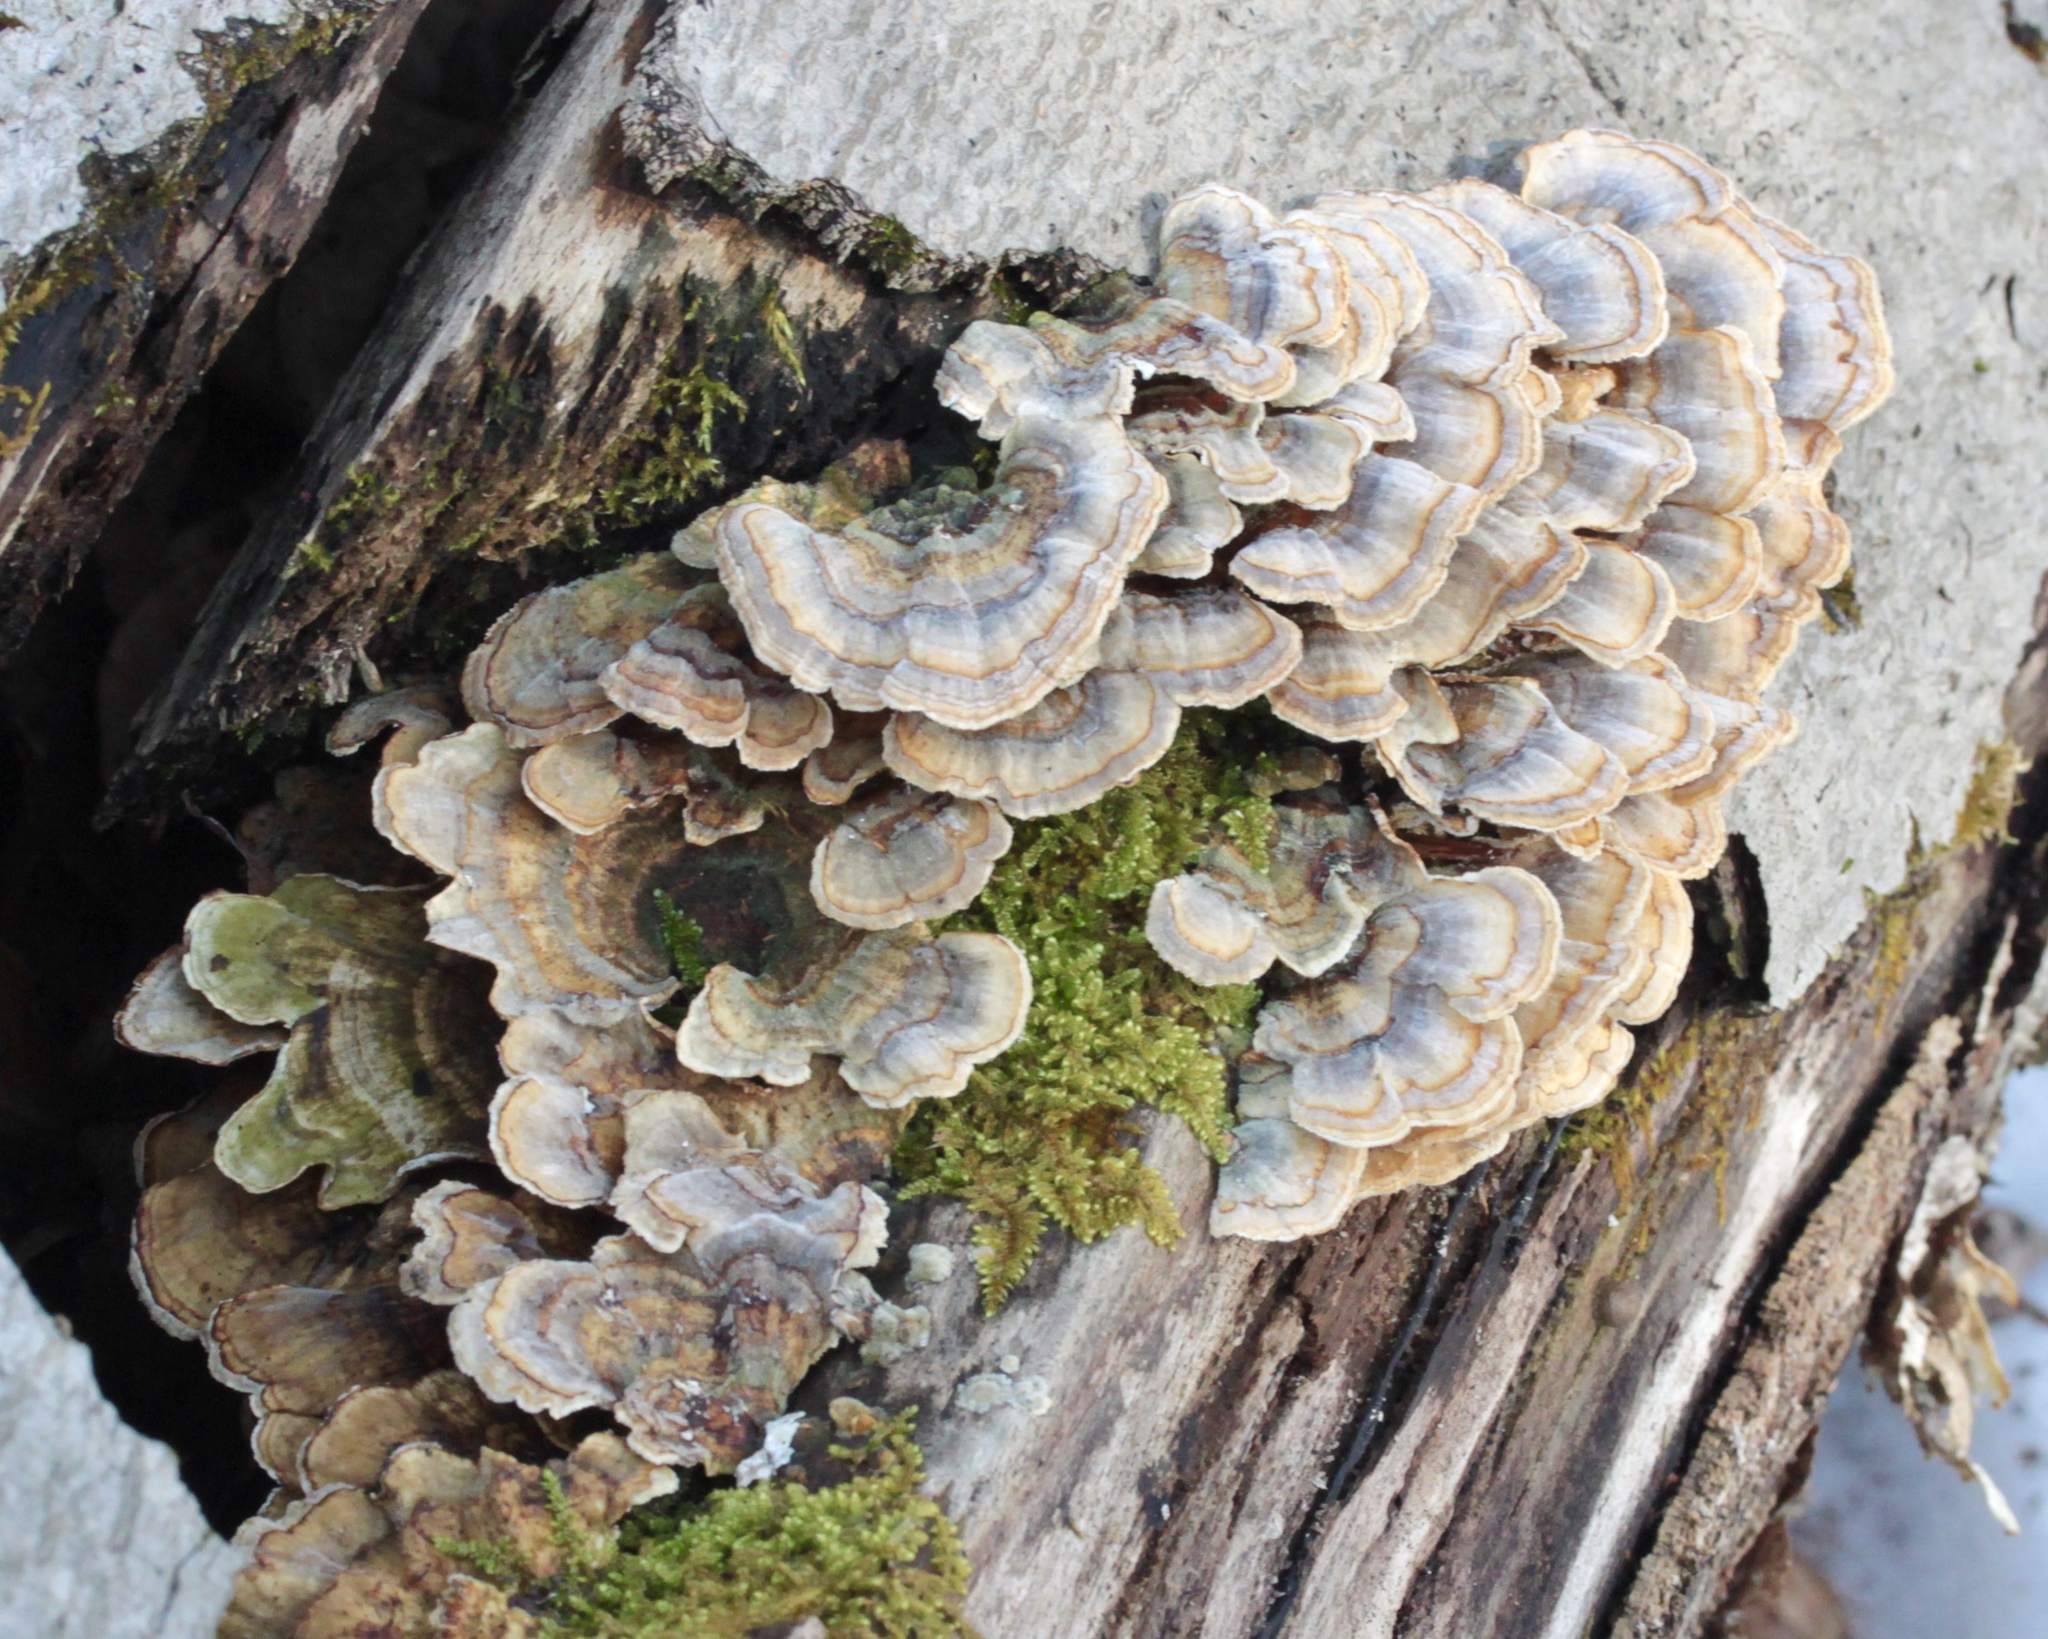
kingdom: Fungi
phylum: Basidiomycota
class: Agaricomycetes
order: Polyporales
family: Polyporaceae
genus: Trametes
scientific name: Trametes versicolor
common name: Turkeytail
